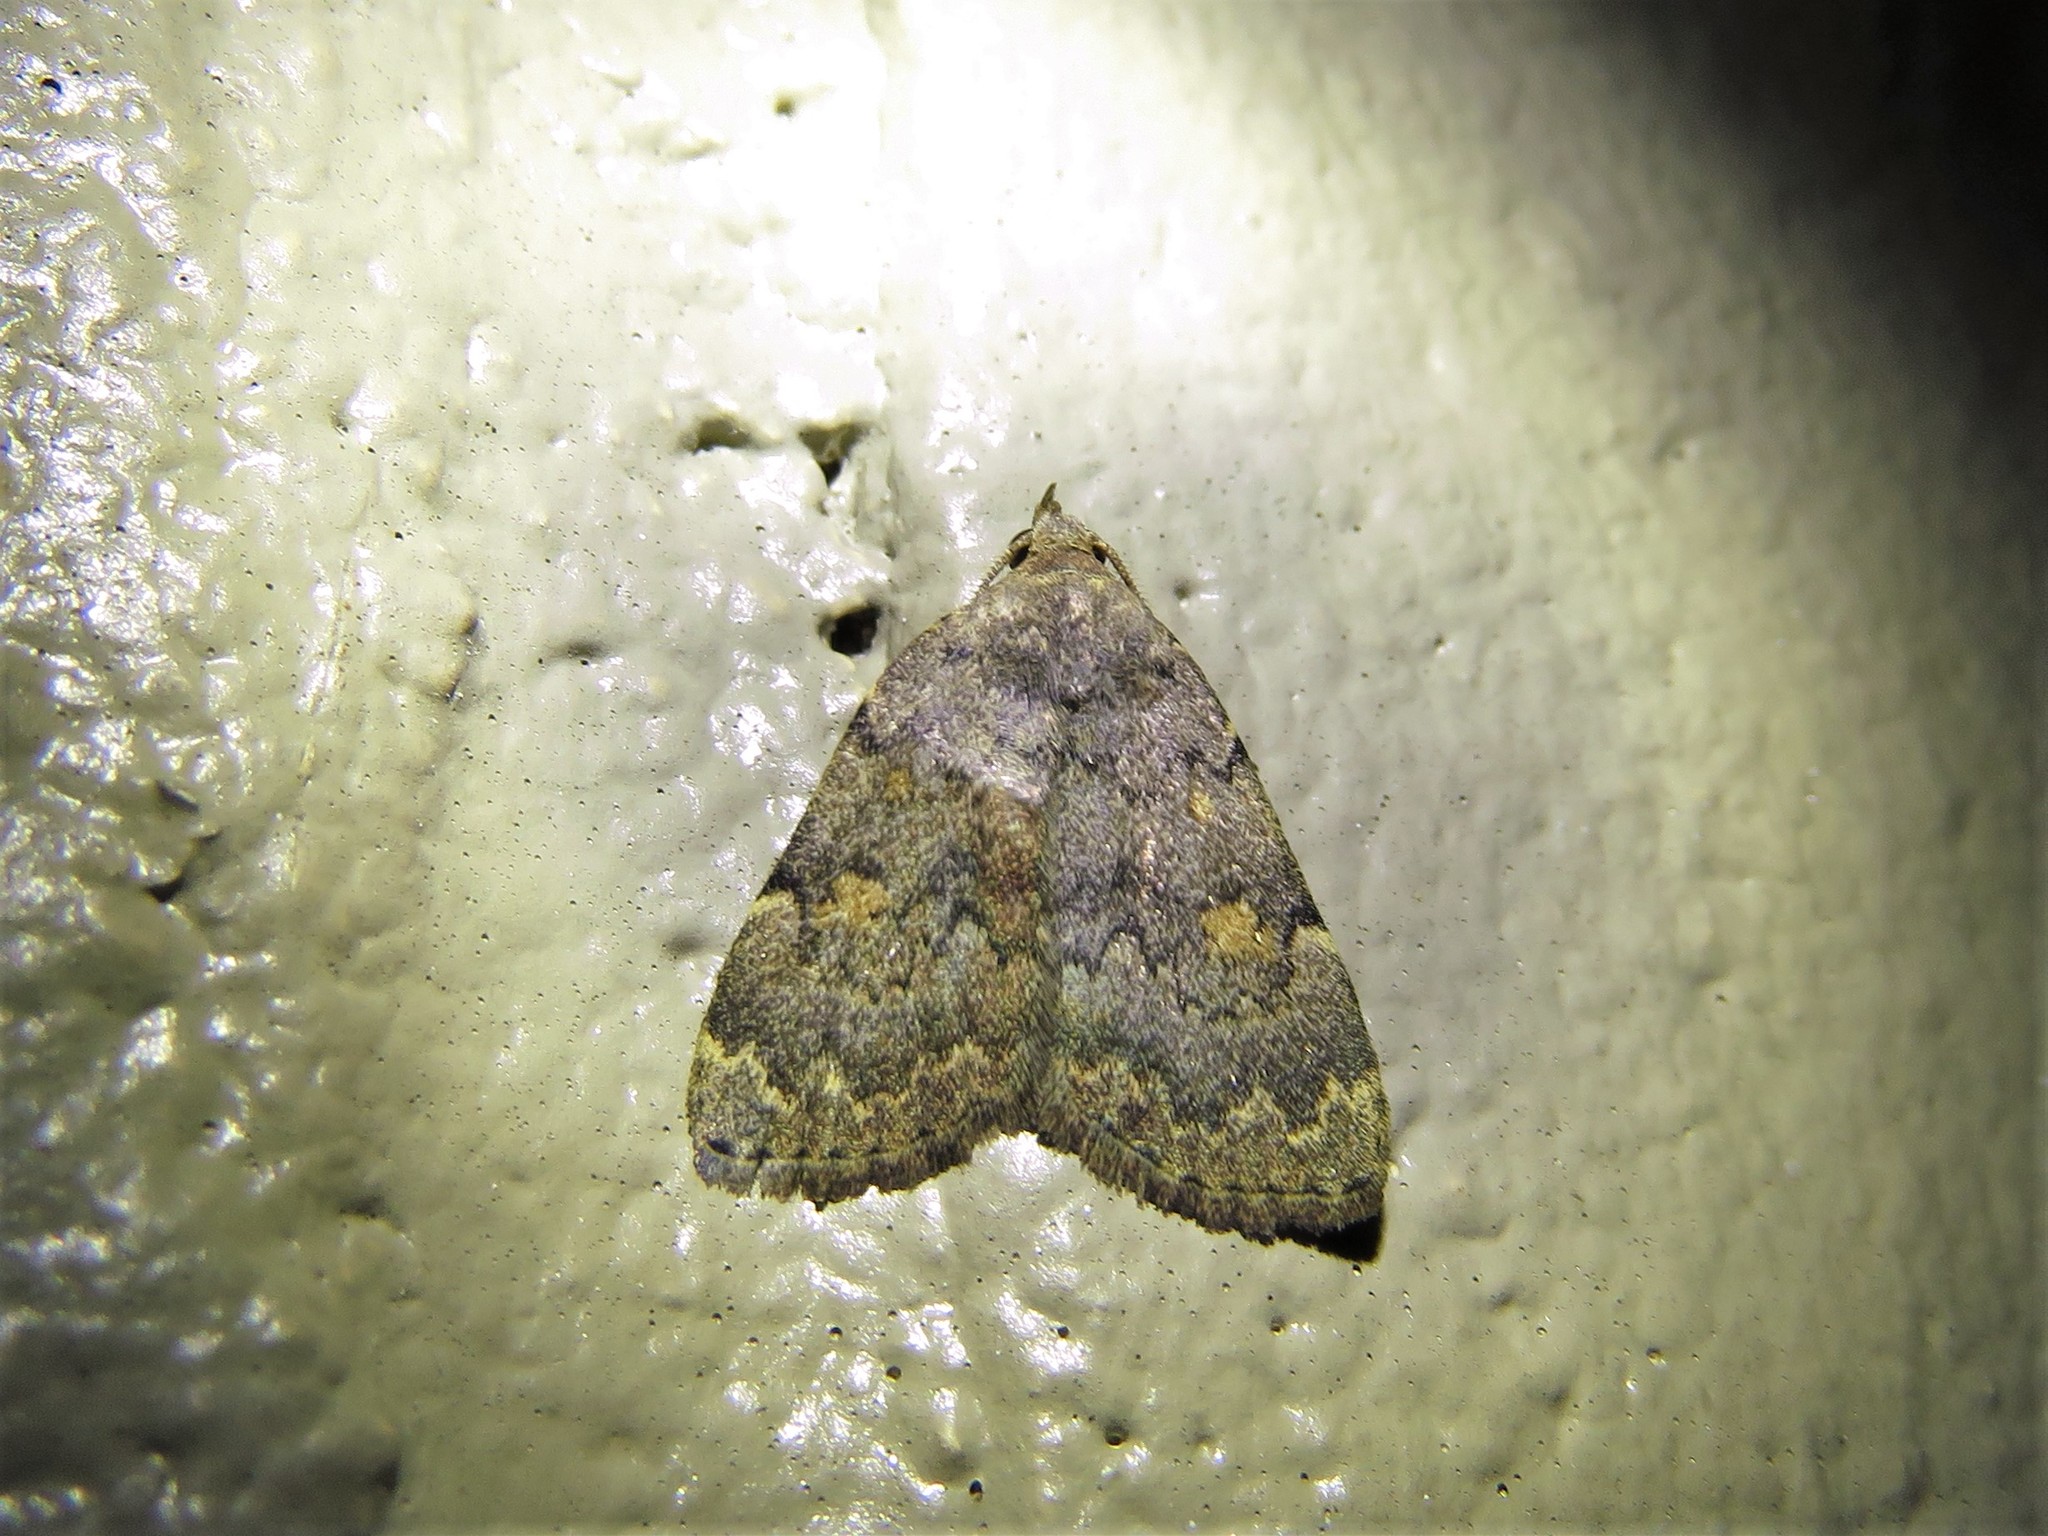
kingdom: Animalia
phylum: Arthropoda
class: Insecta
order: Lepidoptera
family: Erebidae
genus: Idia
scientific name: Idia aemula
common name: Common idia moth
